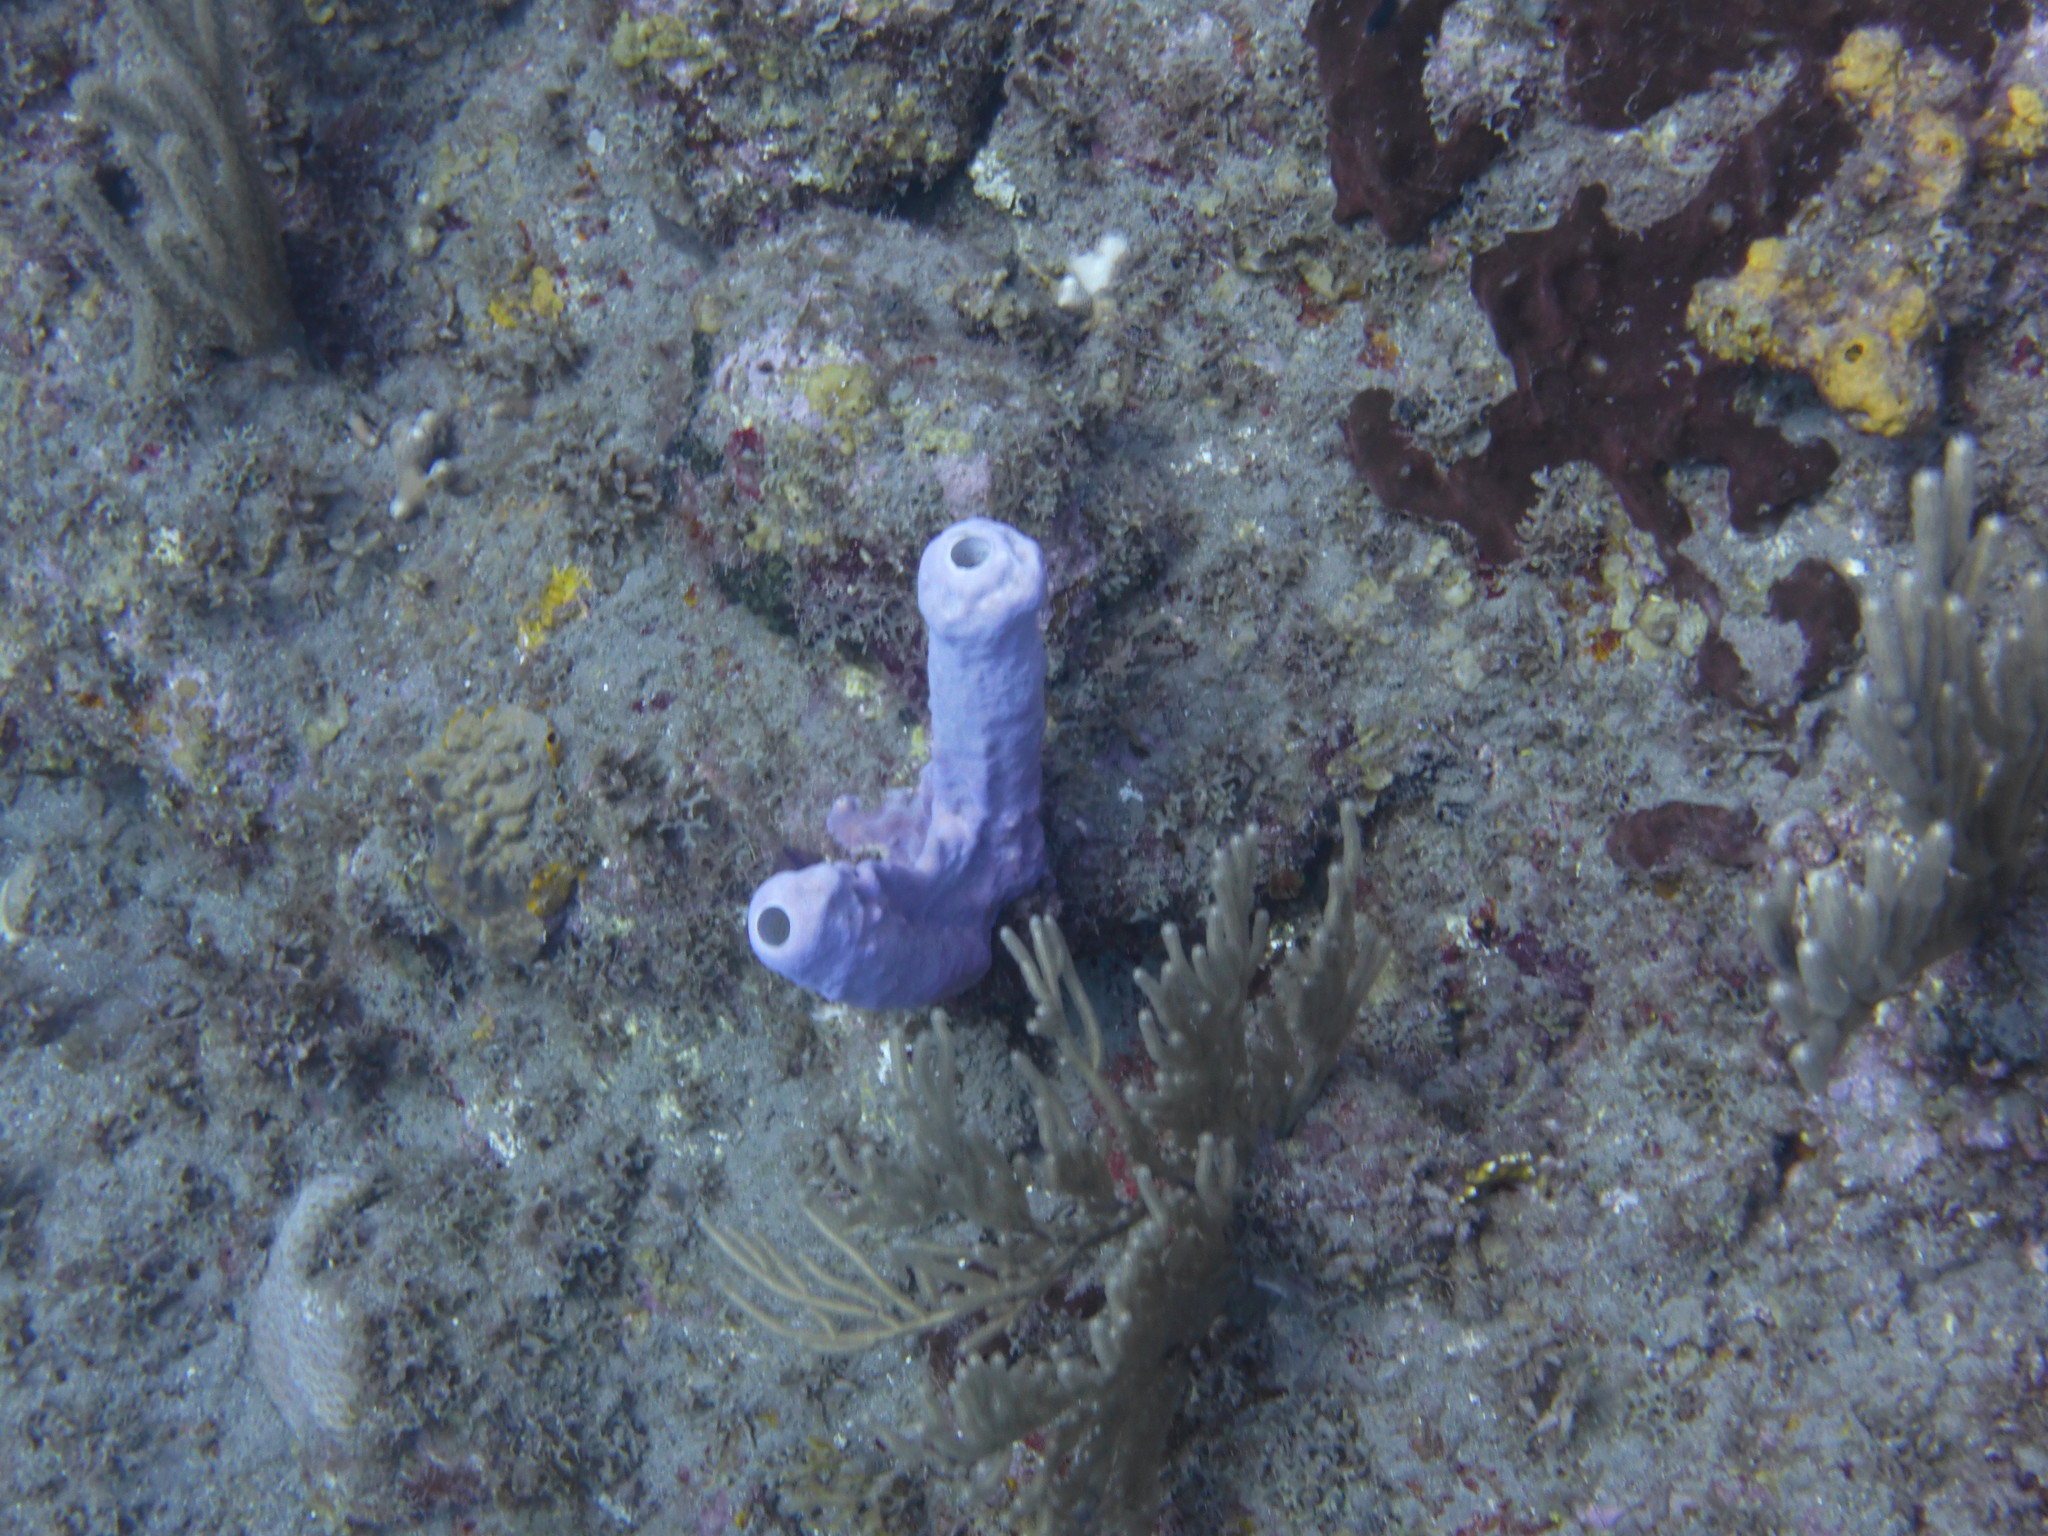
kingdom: Animalia
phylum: Porifera
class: Demospongiae
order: Verongiida
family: Aplysinidae
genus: Aplysina
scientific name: Aplysina archeri
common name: Stove-pipe sponge
